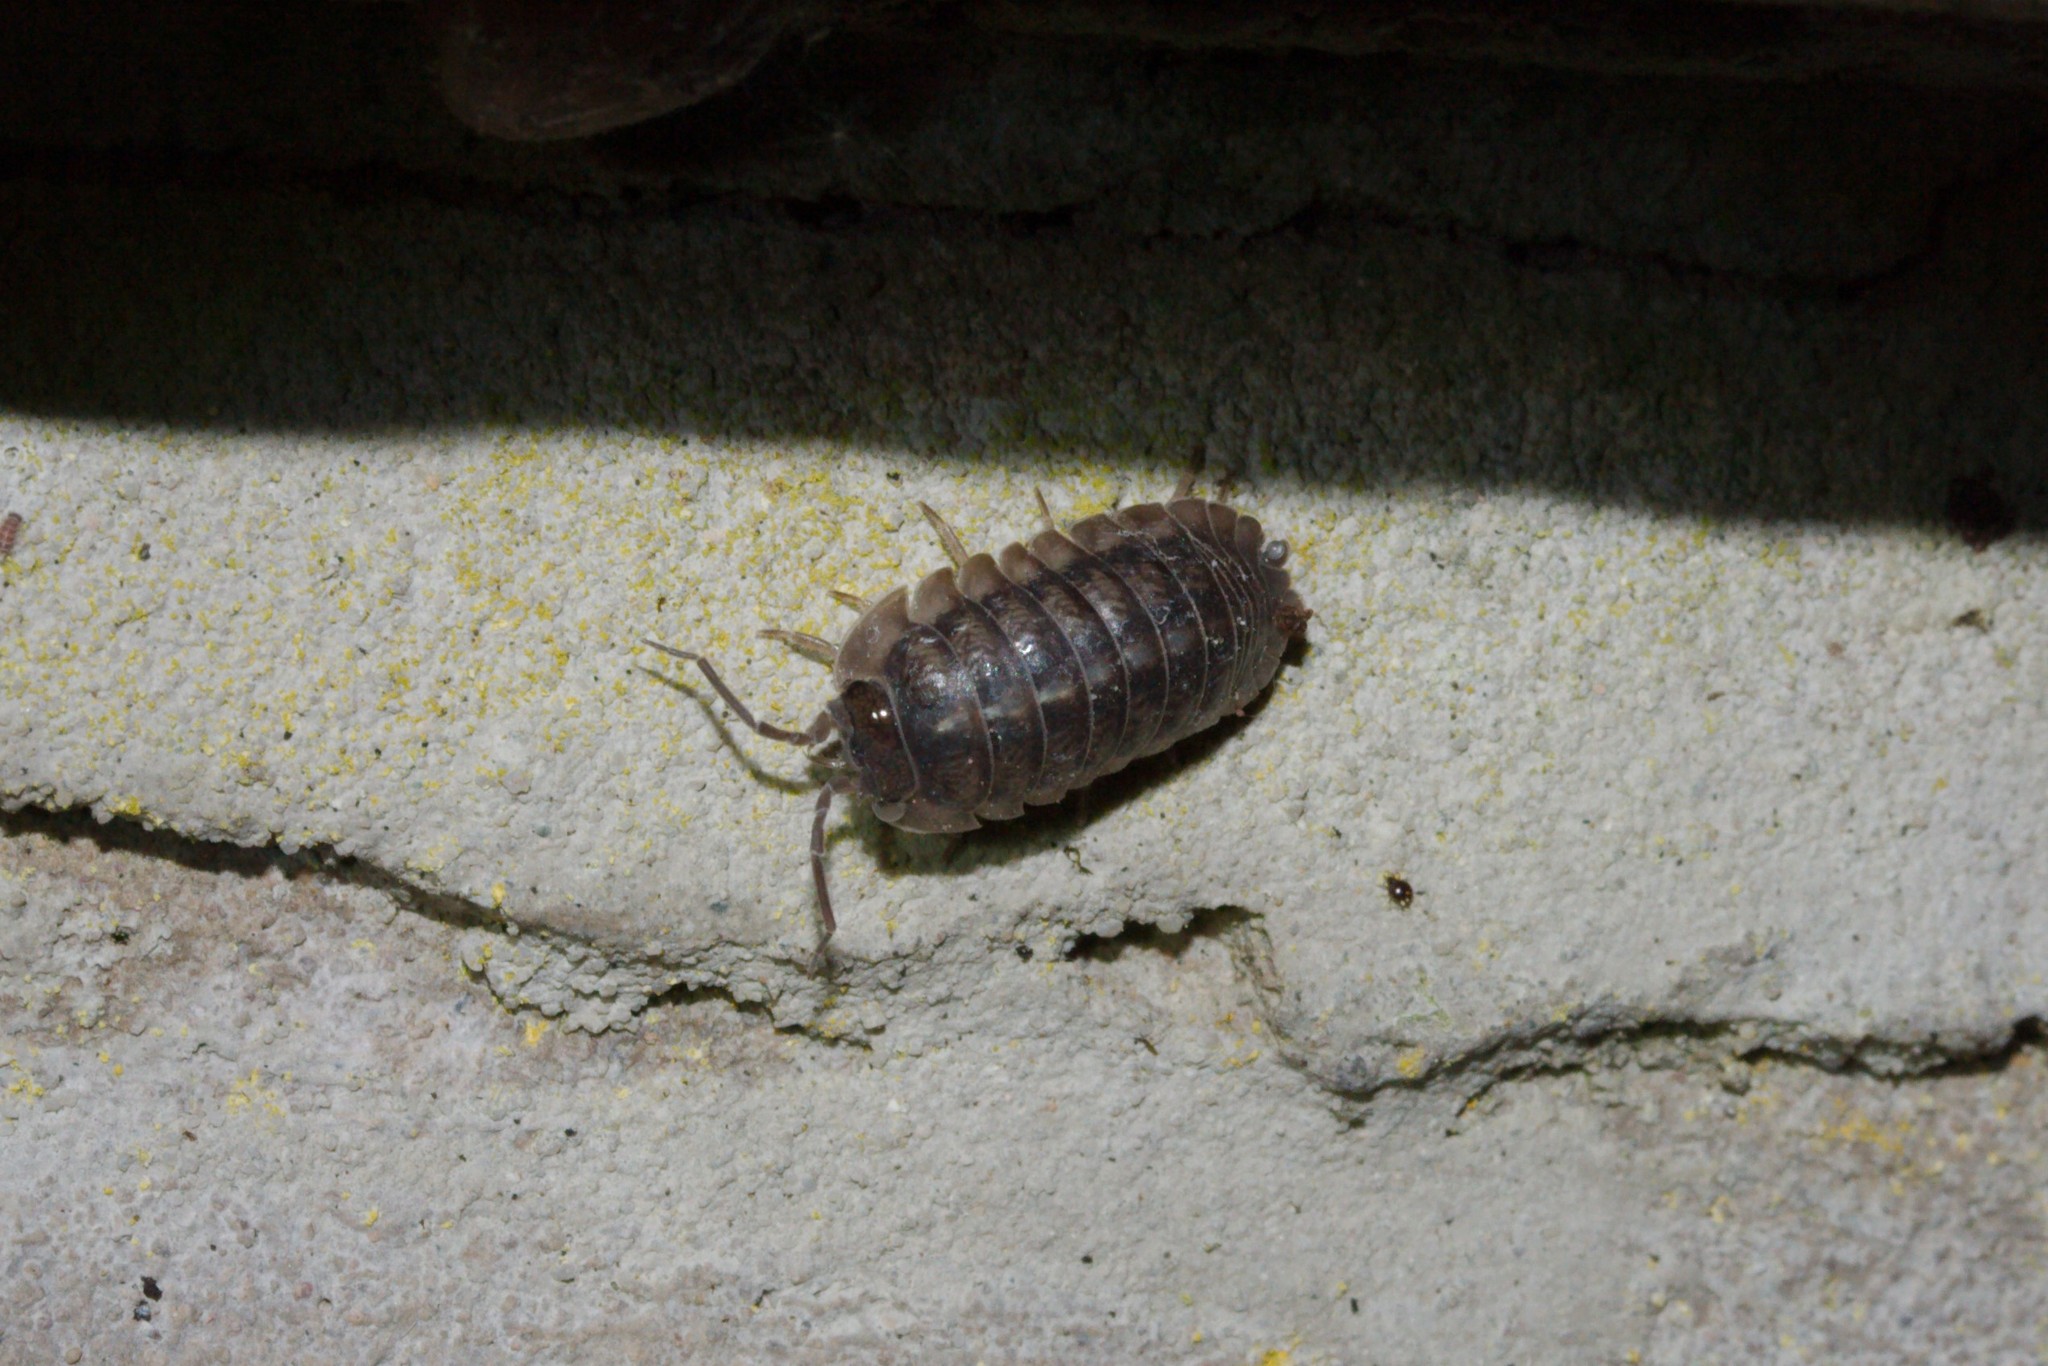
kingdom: Animalia
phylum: Arthropoda
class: Malacostraca
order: Isopoda
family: Armadillidiidae
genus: Armadillidium
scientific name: Armadillidium nasatum
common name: Isopod
